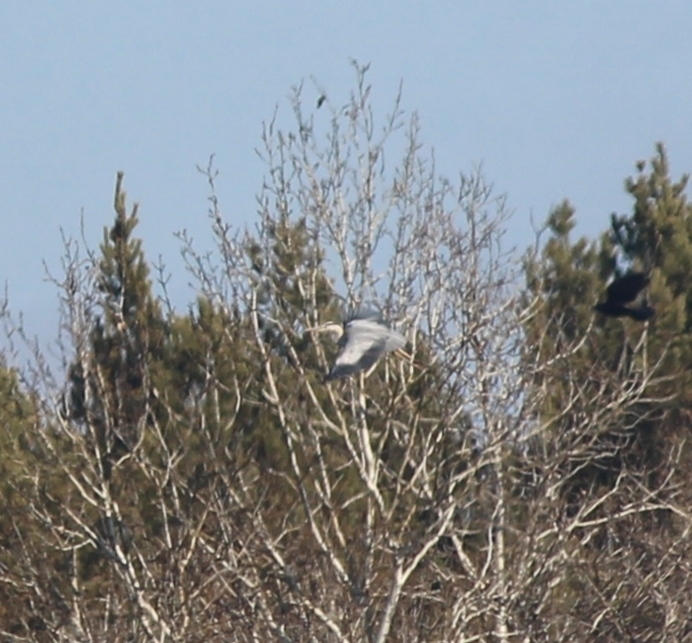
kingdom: Animalia
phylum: Chordata
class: Aves
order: Pelecaniformes
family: Ardeidae
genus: Ardea
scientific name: Ardea cinerea
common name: Grey heron
